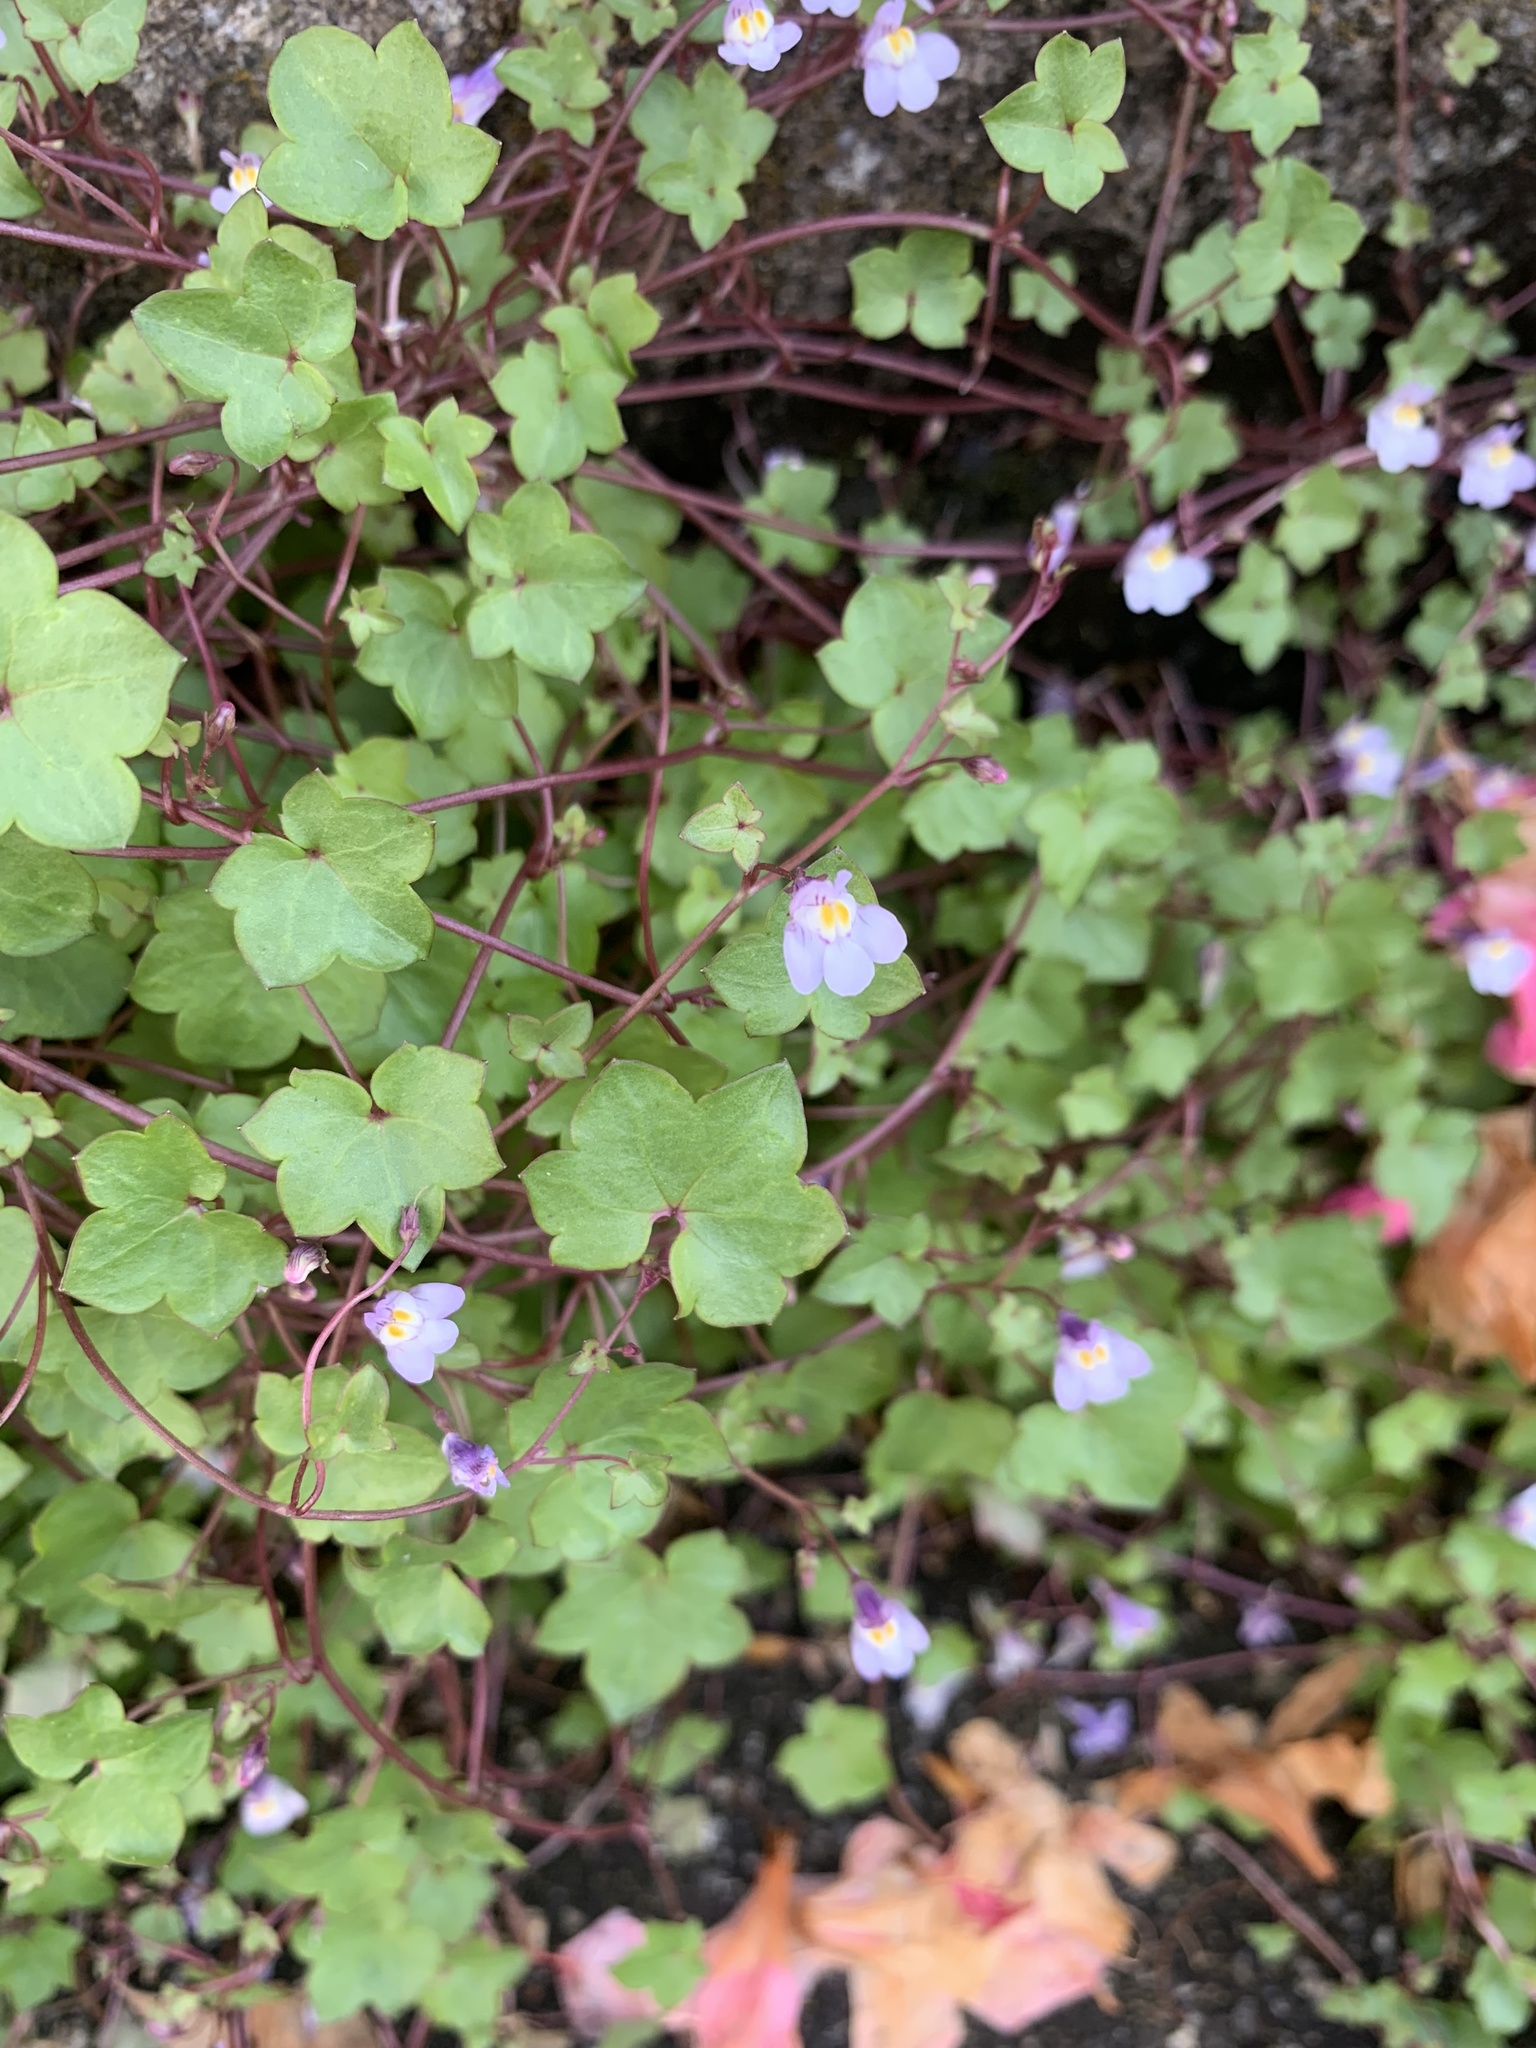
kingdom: Plantae
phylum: Tracheophyta
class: Magnoliopsida
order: Lamiales
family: Plantaginaceae
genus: Cymbalaria
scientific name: Cymbalaria muralis
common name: Ivy-leaved toadflax
